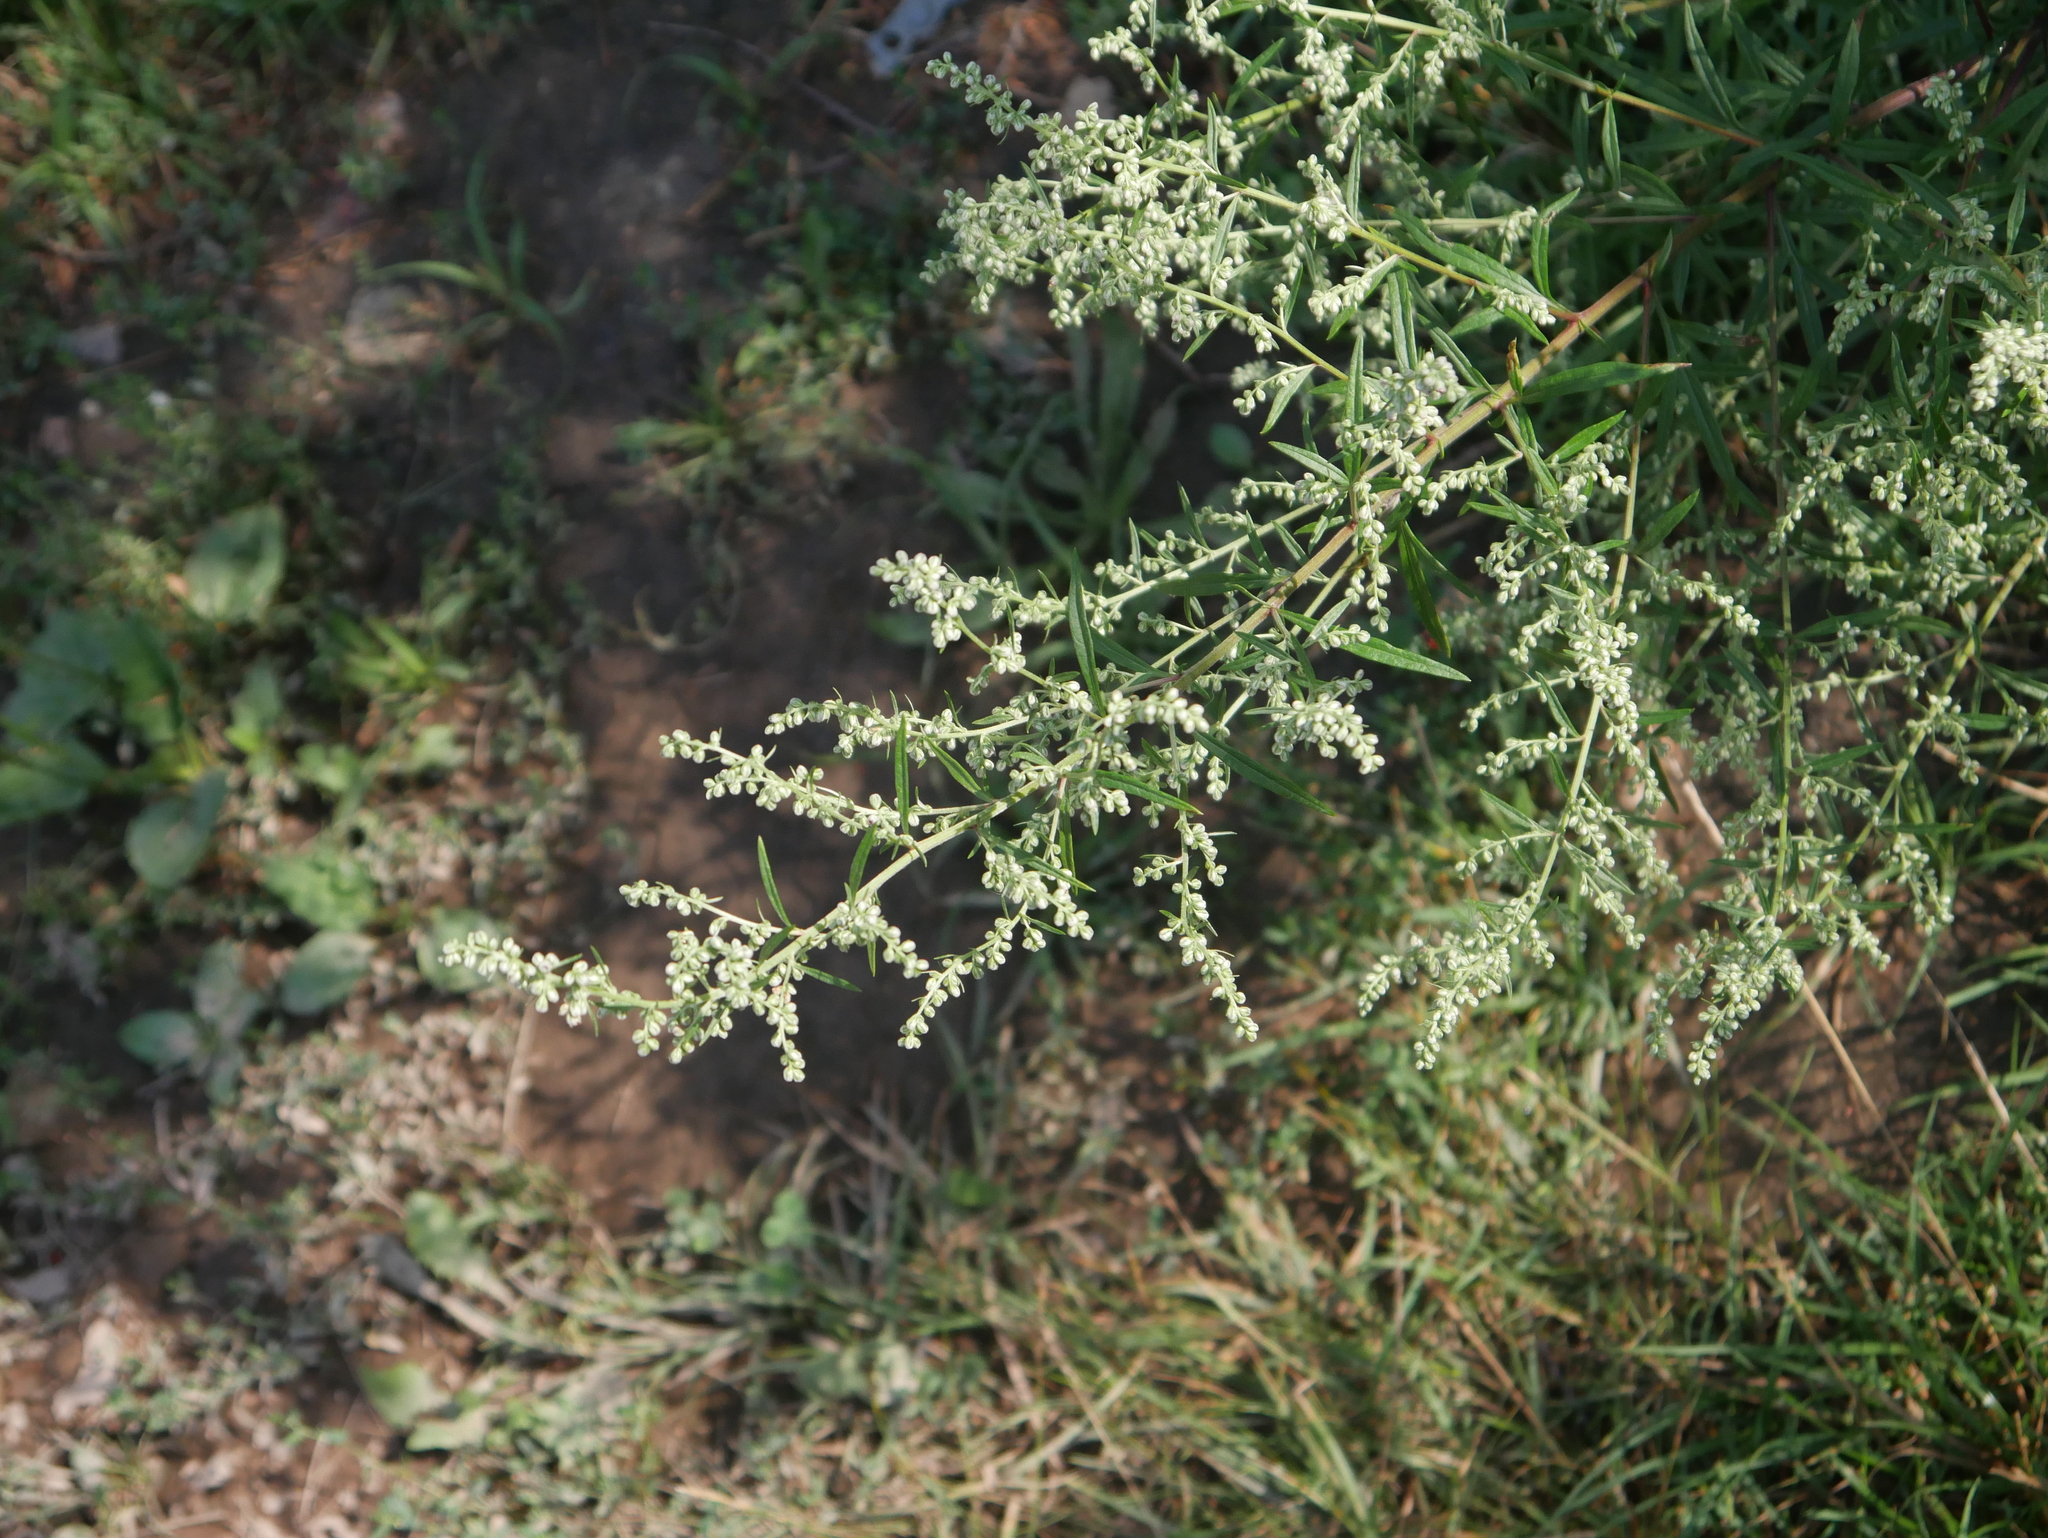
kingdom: Plantae
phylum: Tracheophyta
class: Magnoliopsida
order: Asterales
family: Asteraceae
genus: Artemisia
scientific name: Artemisia vulgaris
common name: Mugwort
